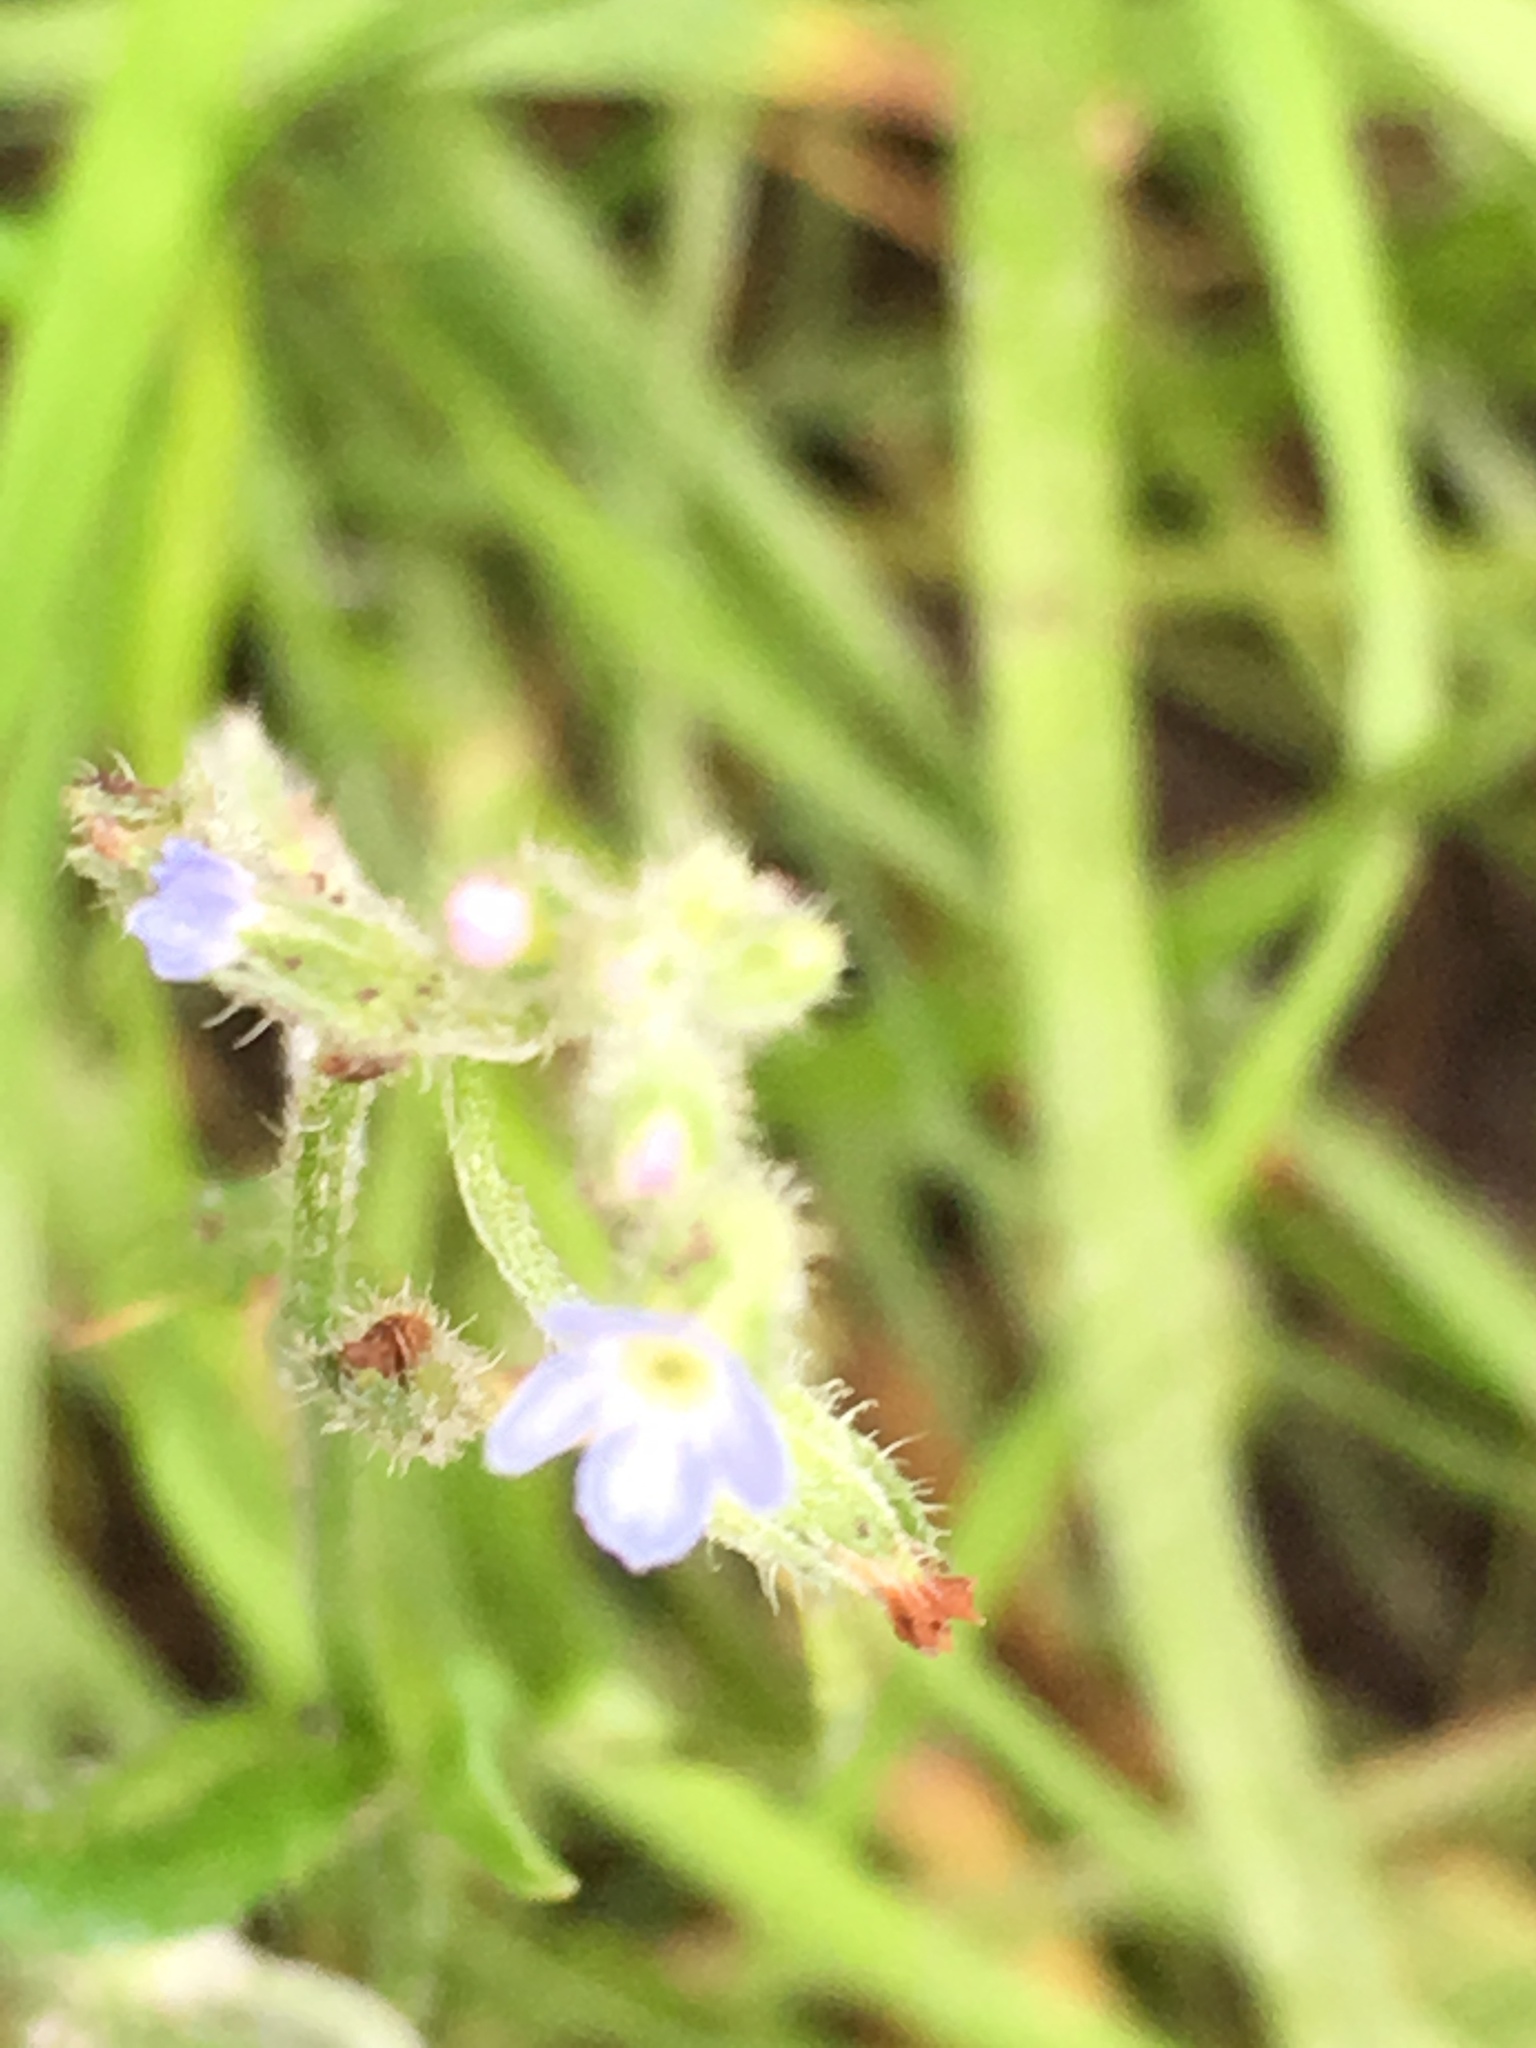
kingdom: Plantae
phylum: Tracheophyta
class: Magnoliopsida
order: Boraginales
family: Boraginaceae
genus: Myosotis
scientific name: Myosotis ramosissima
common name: Early forget-me-not
